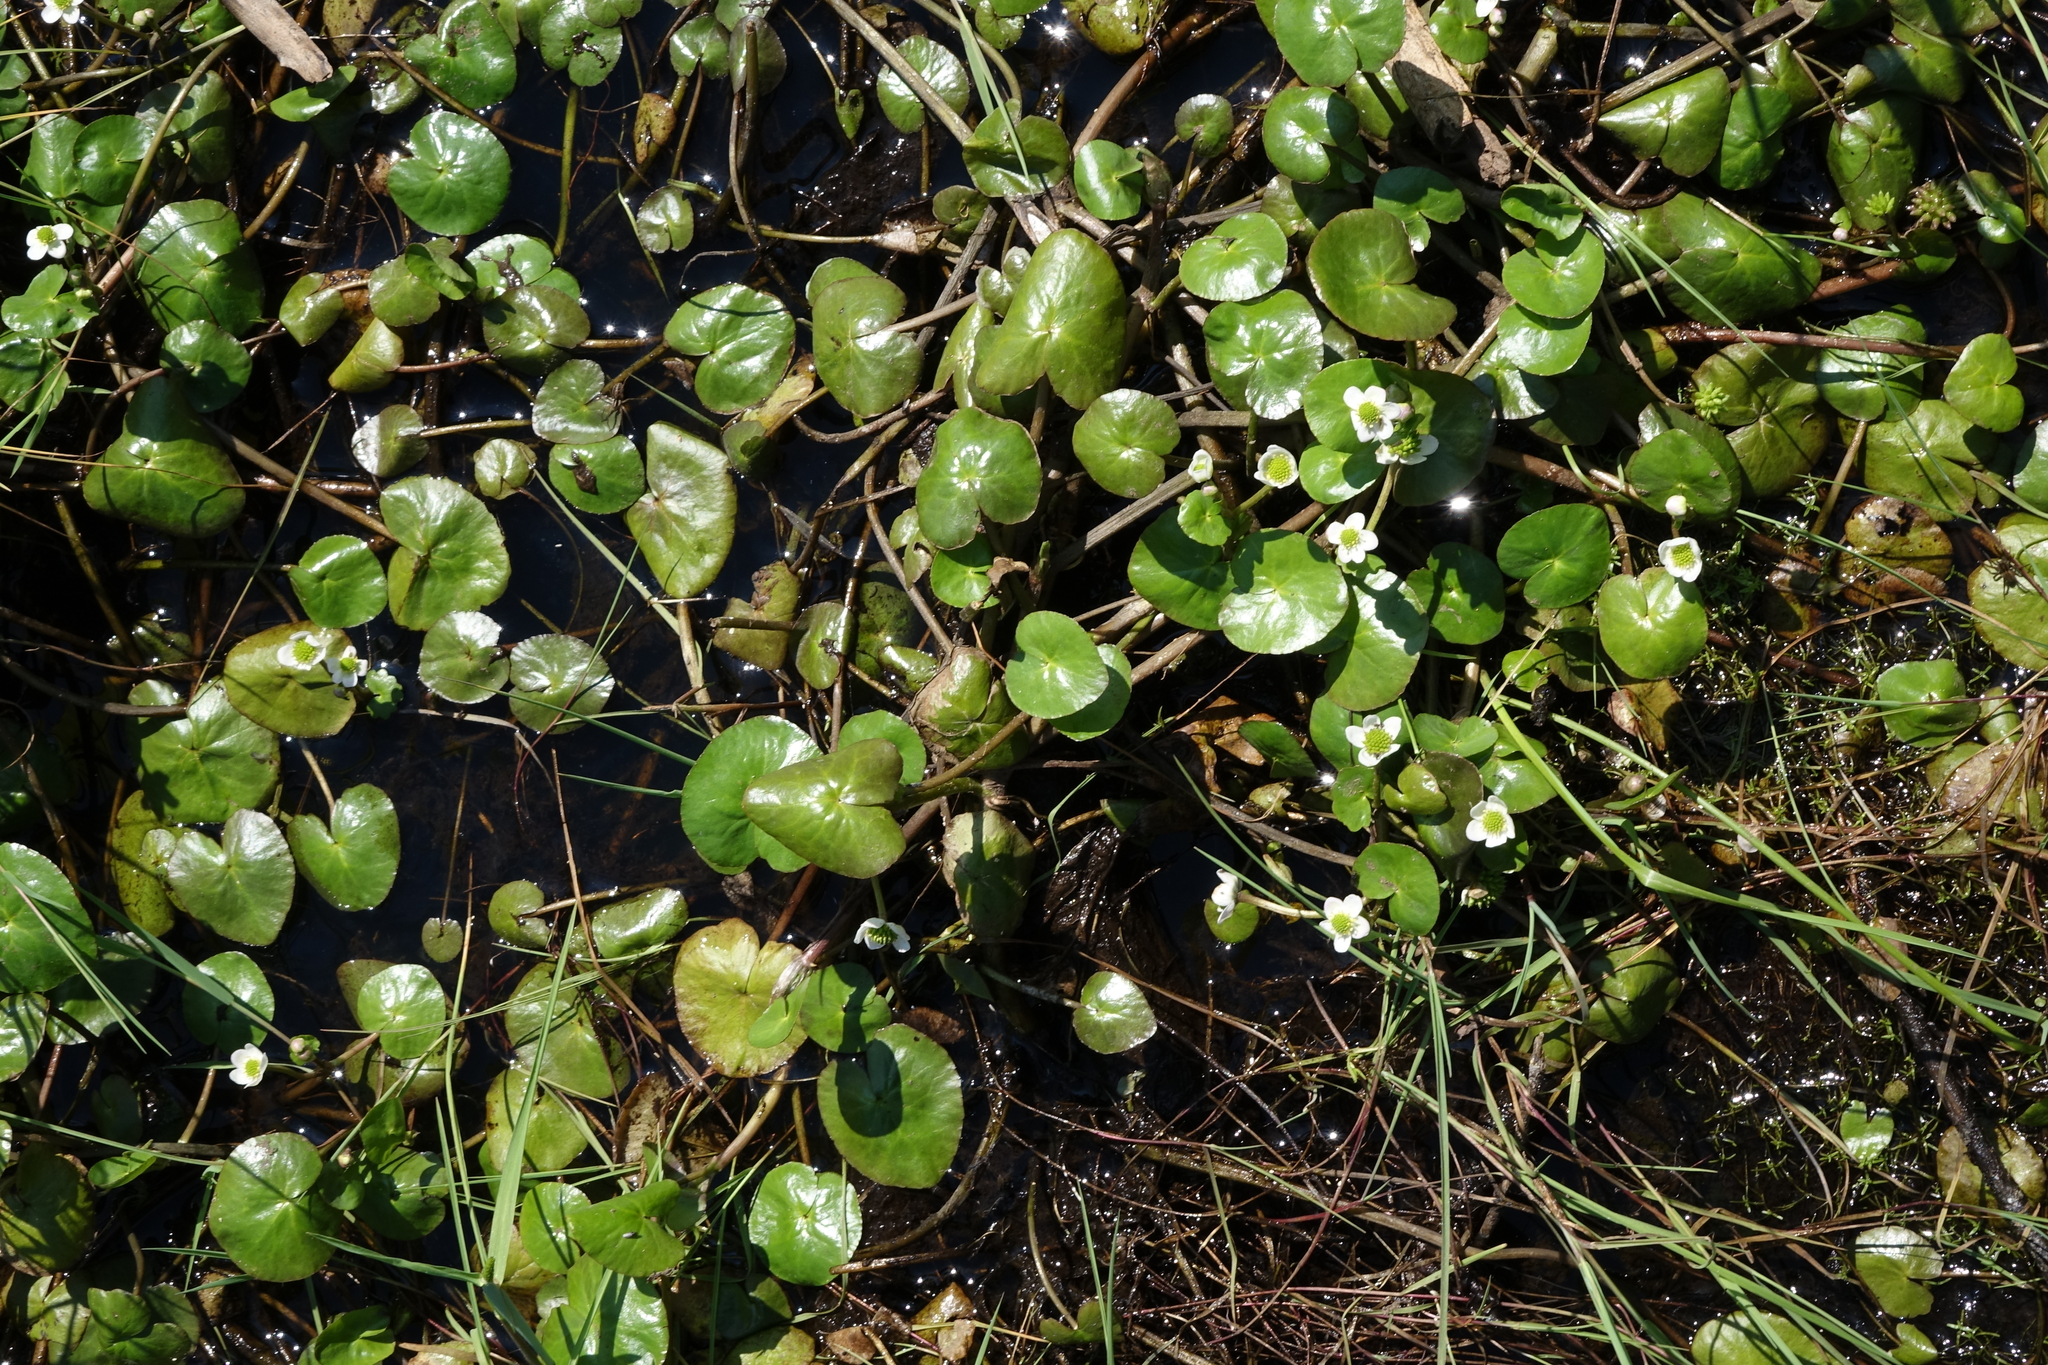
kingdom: Plantae
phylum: Tracheophyta
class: Magnoliopsida
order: Ranunculales
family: Ranunculaceae
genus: Caltha
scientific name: Caltha natans
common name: Floating marsh marigold
